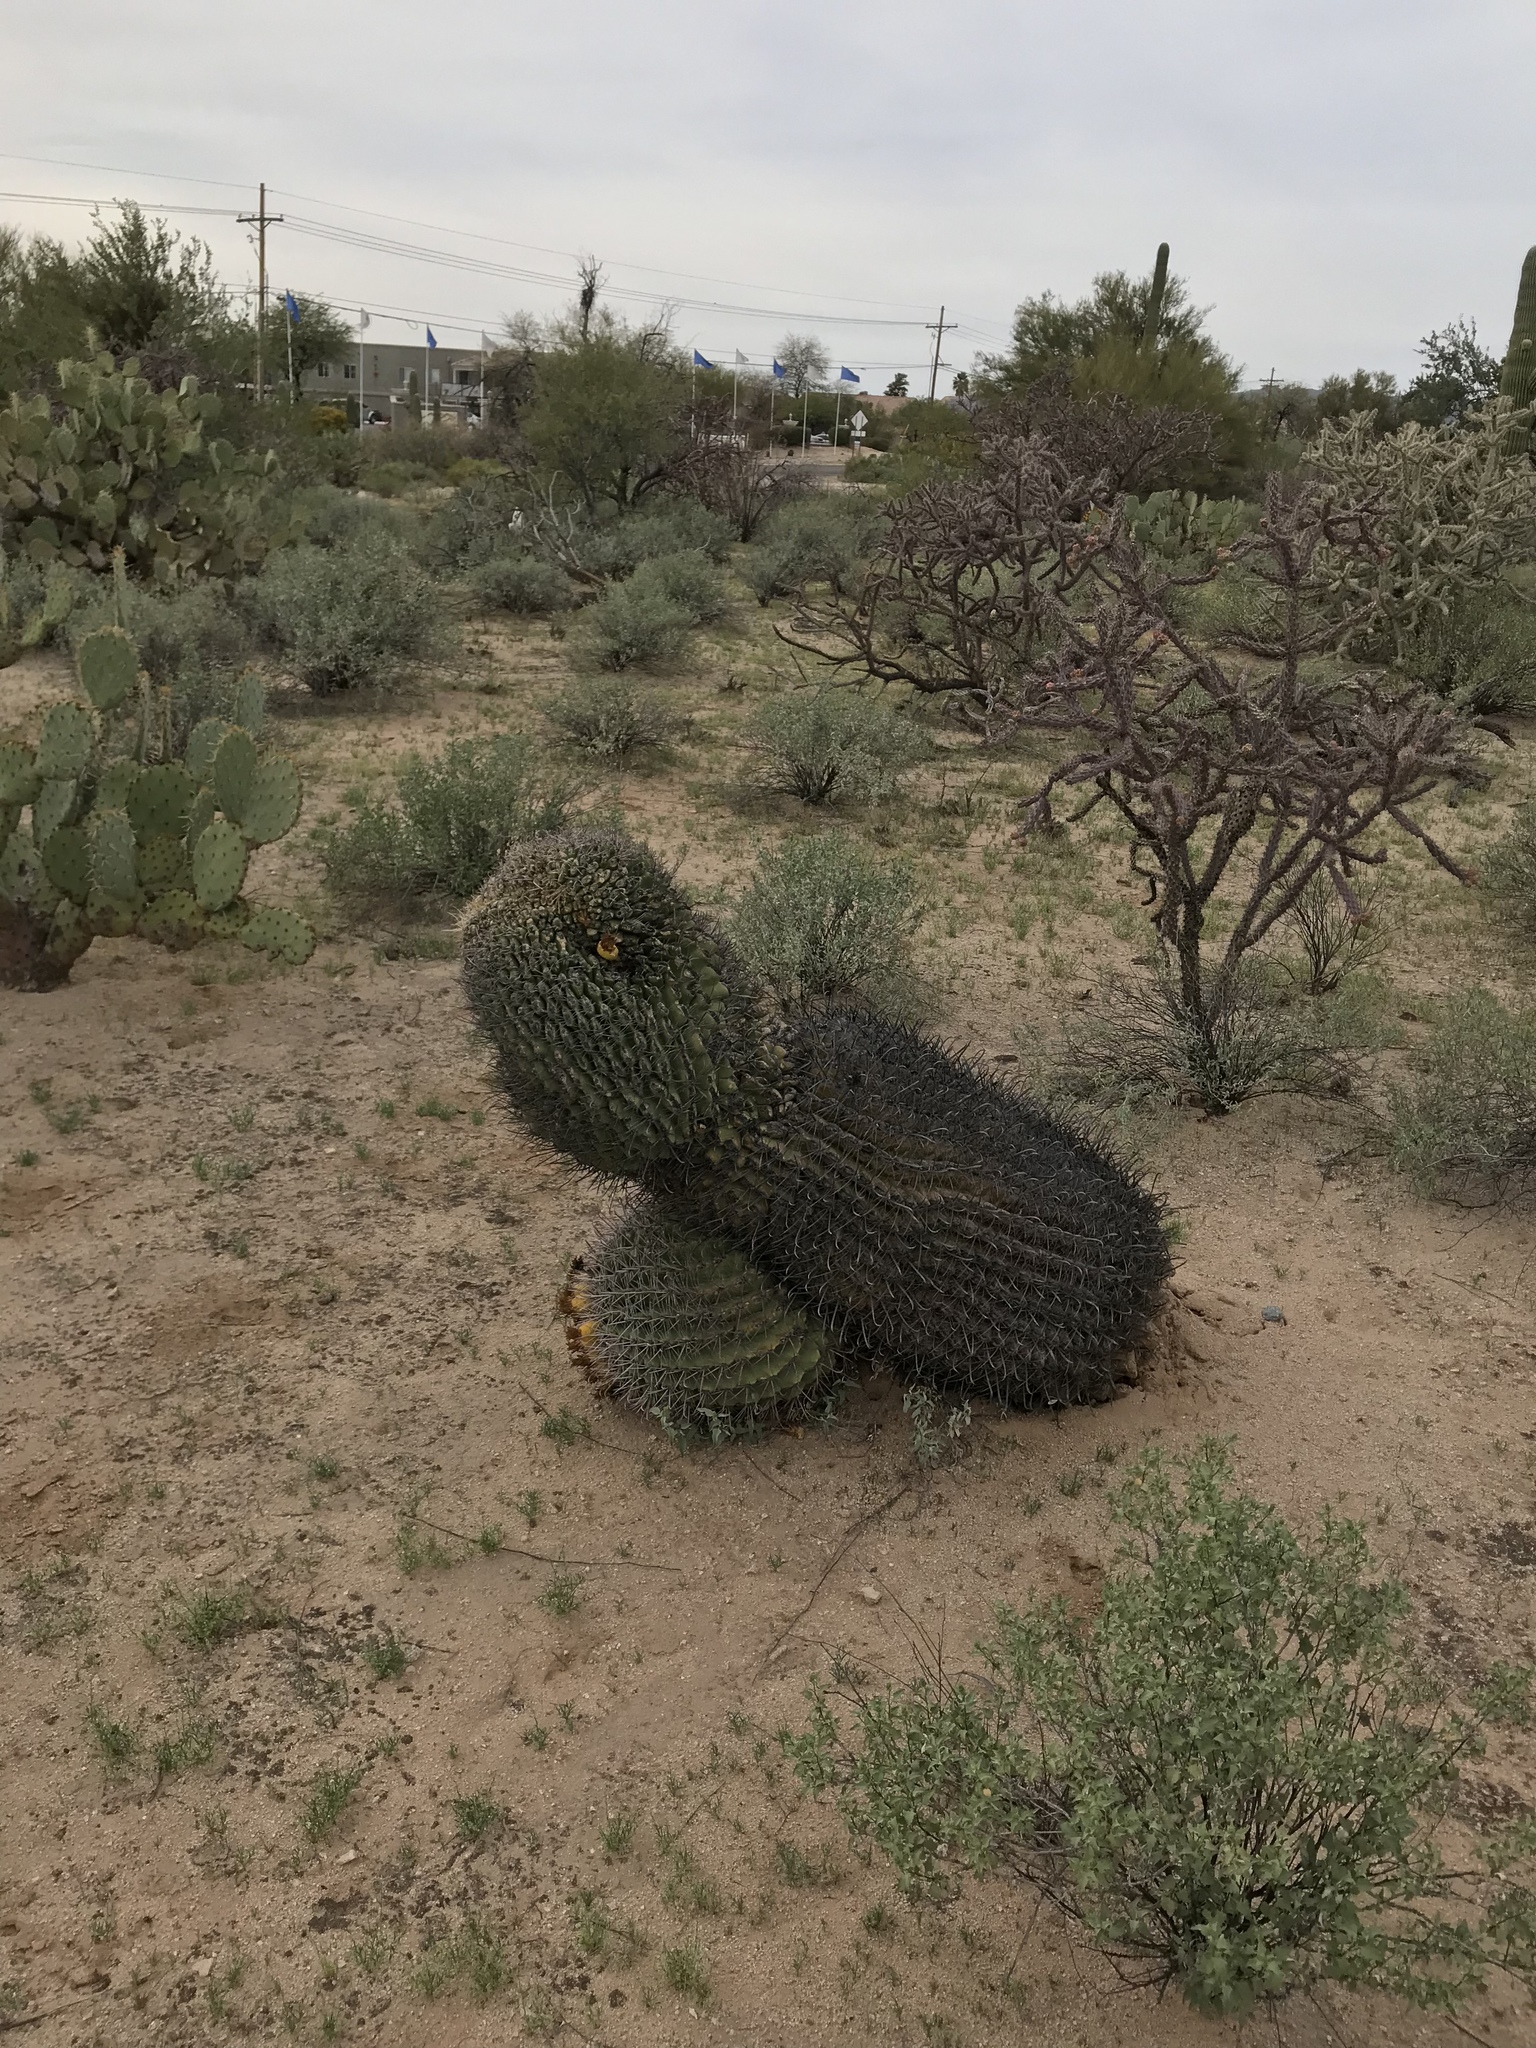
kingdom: Plantae
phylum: Tracheophyta
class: Magnoliopsida
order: Caryophyllales
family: Cactaceae
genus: Ferocactus
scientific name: Ferocactus wislizeni
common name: Candy barrel cactus
